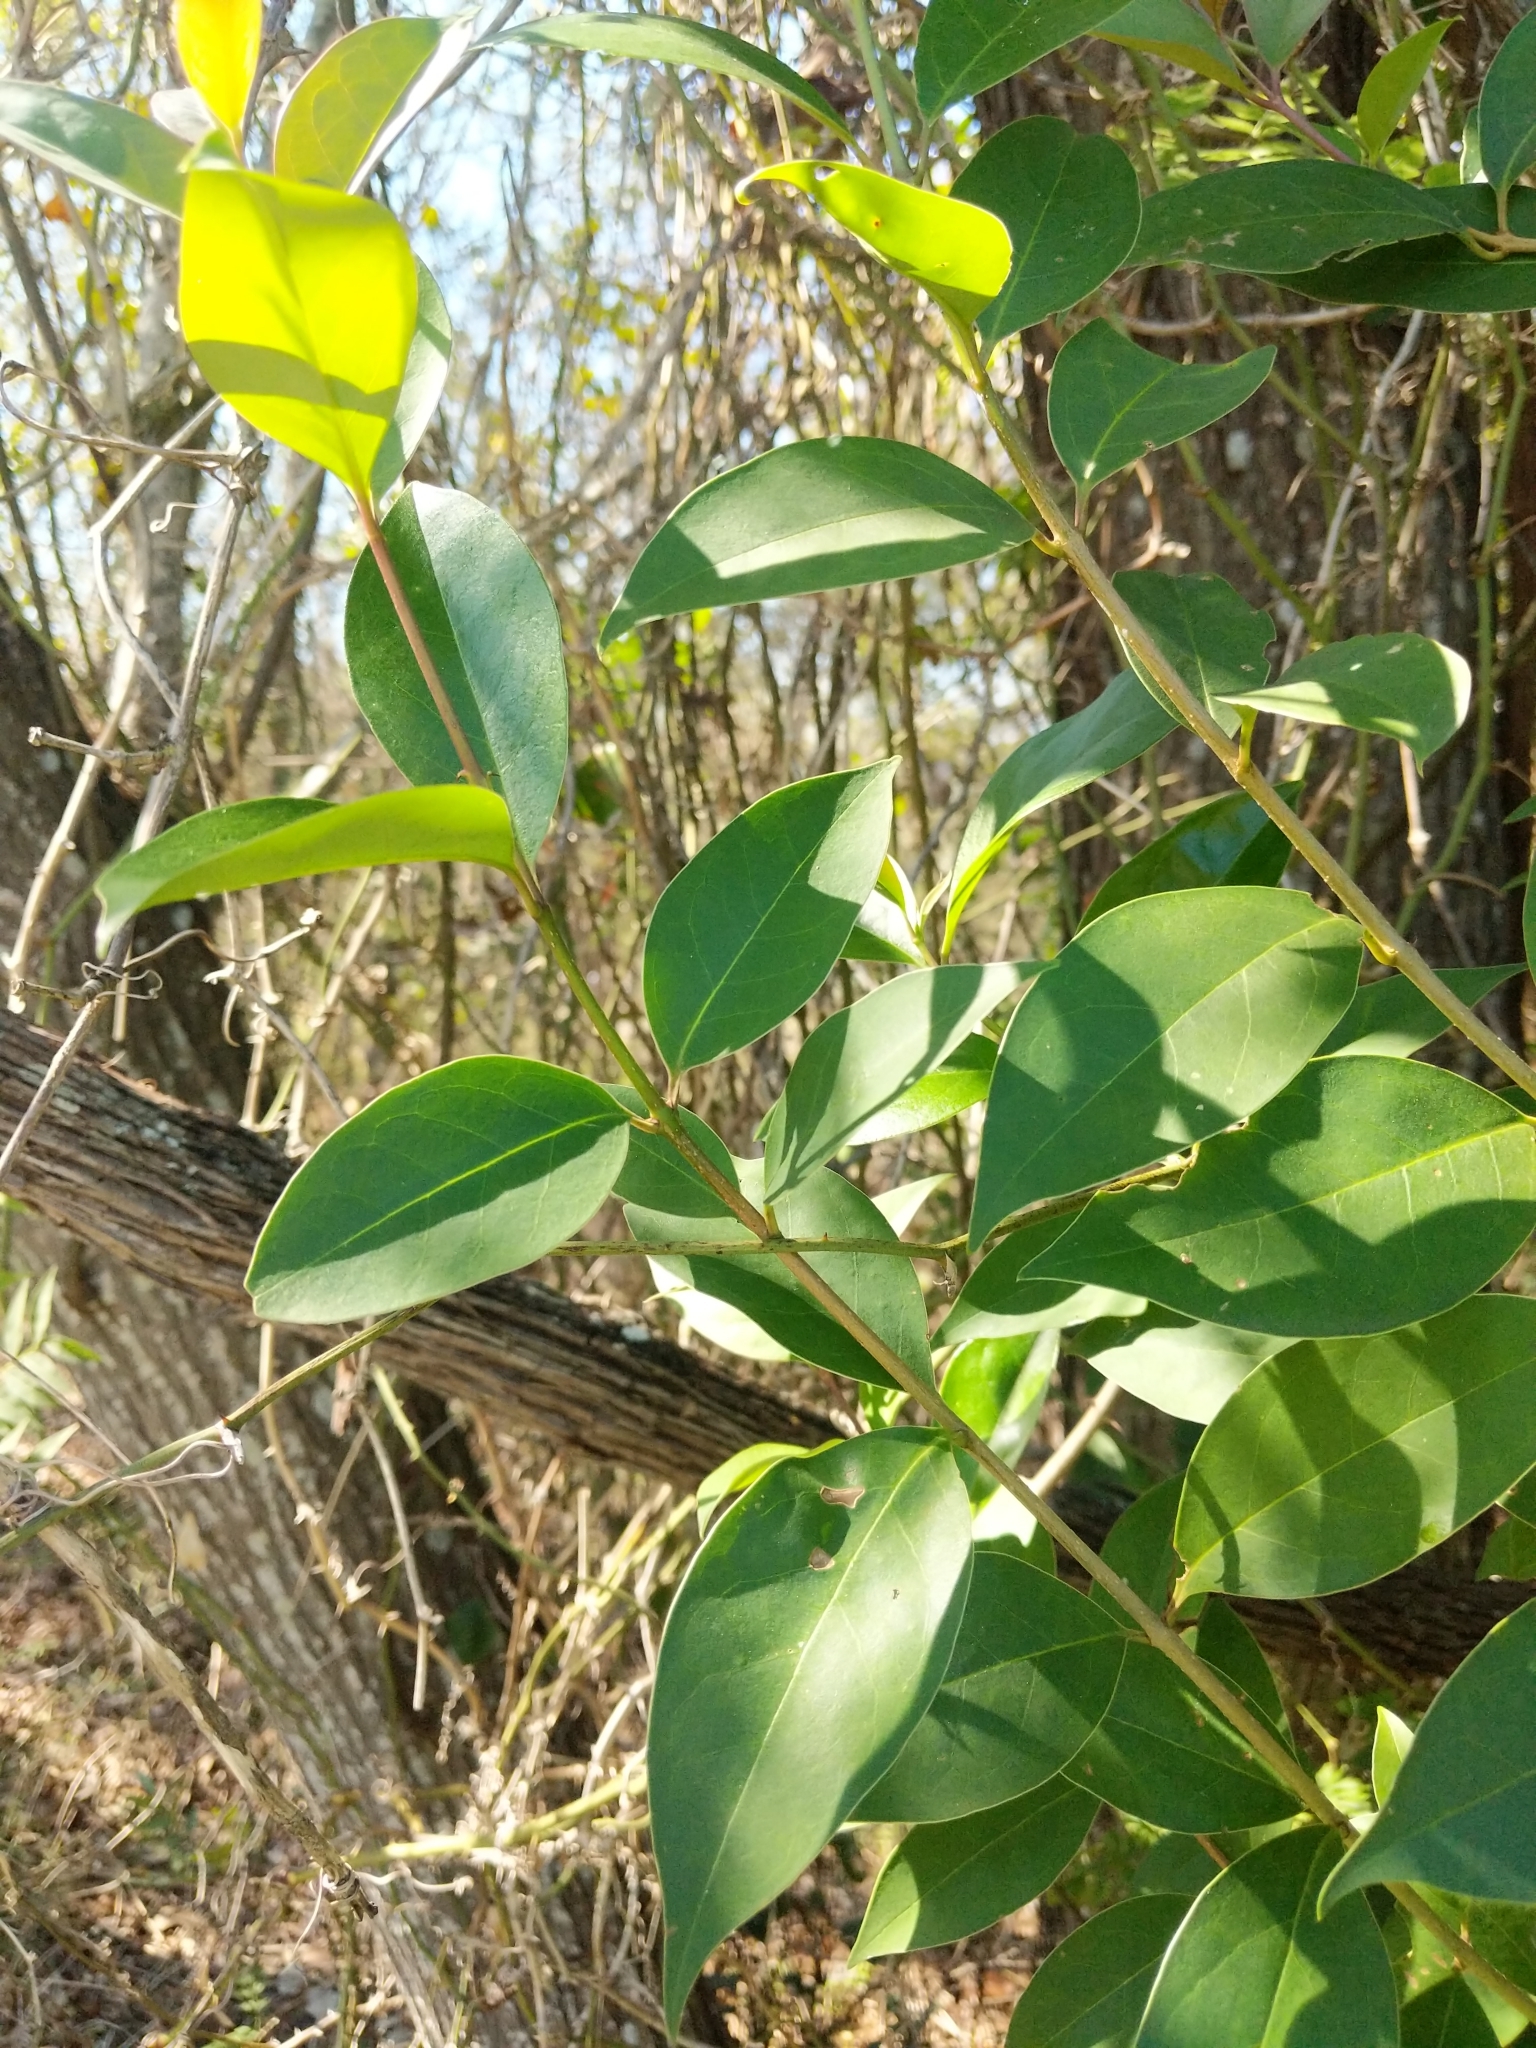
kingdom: Plantae
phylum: Tracheophyta
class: Magnoliopsida
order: Lamiales
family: Oleaceae
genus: Ligustrum
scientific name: Ligustrum lucidum
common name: Glossy privet
